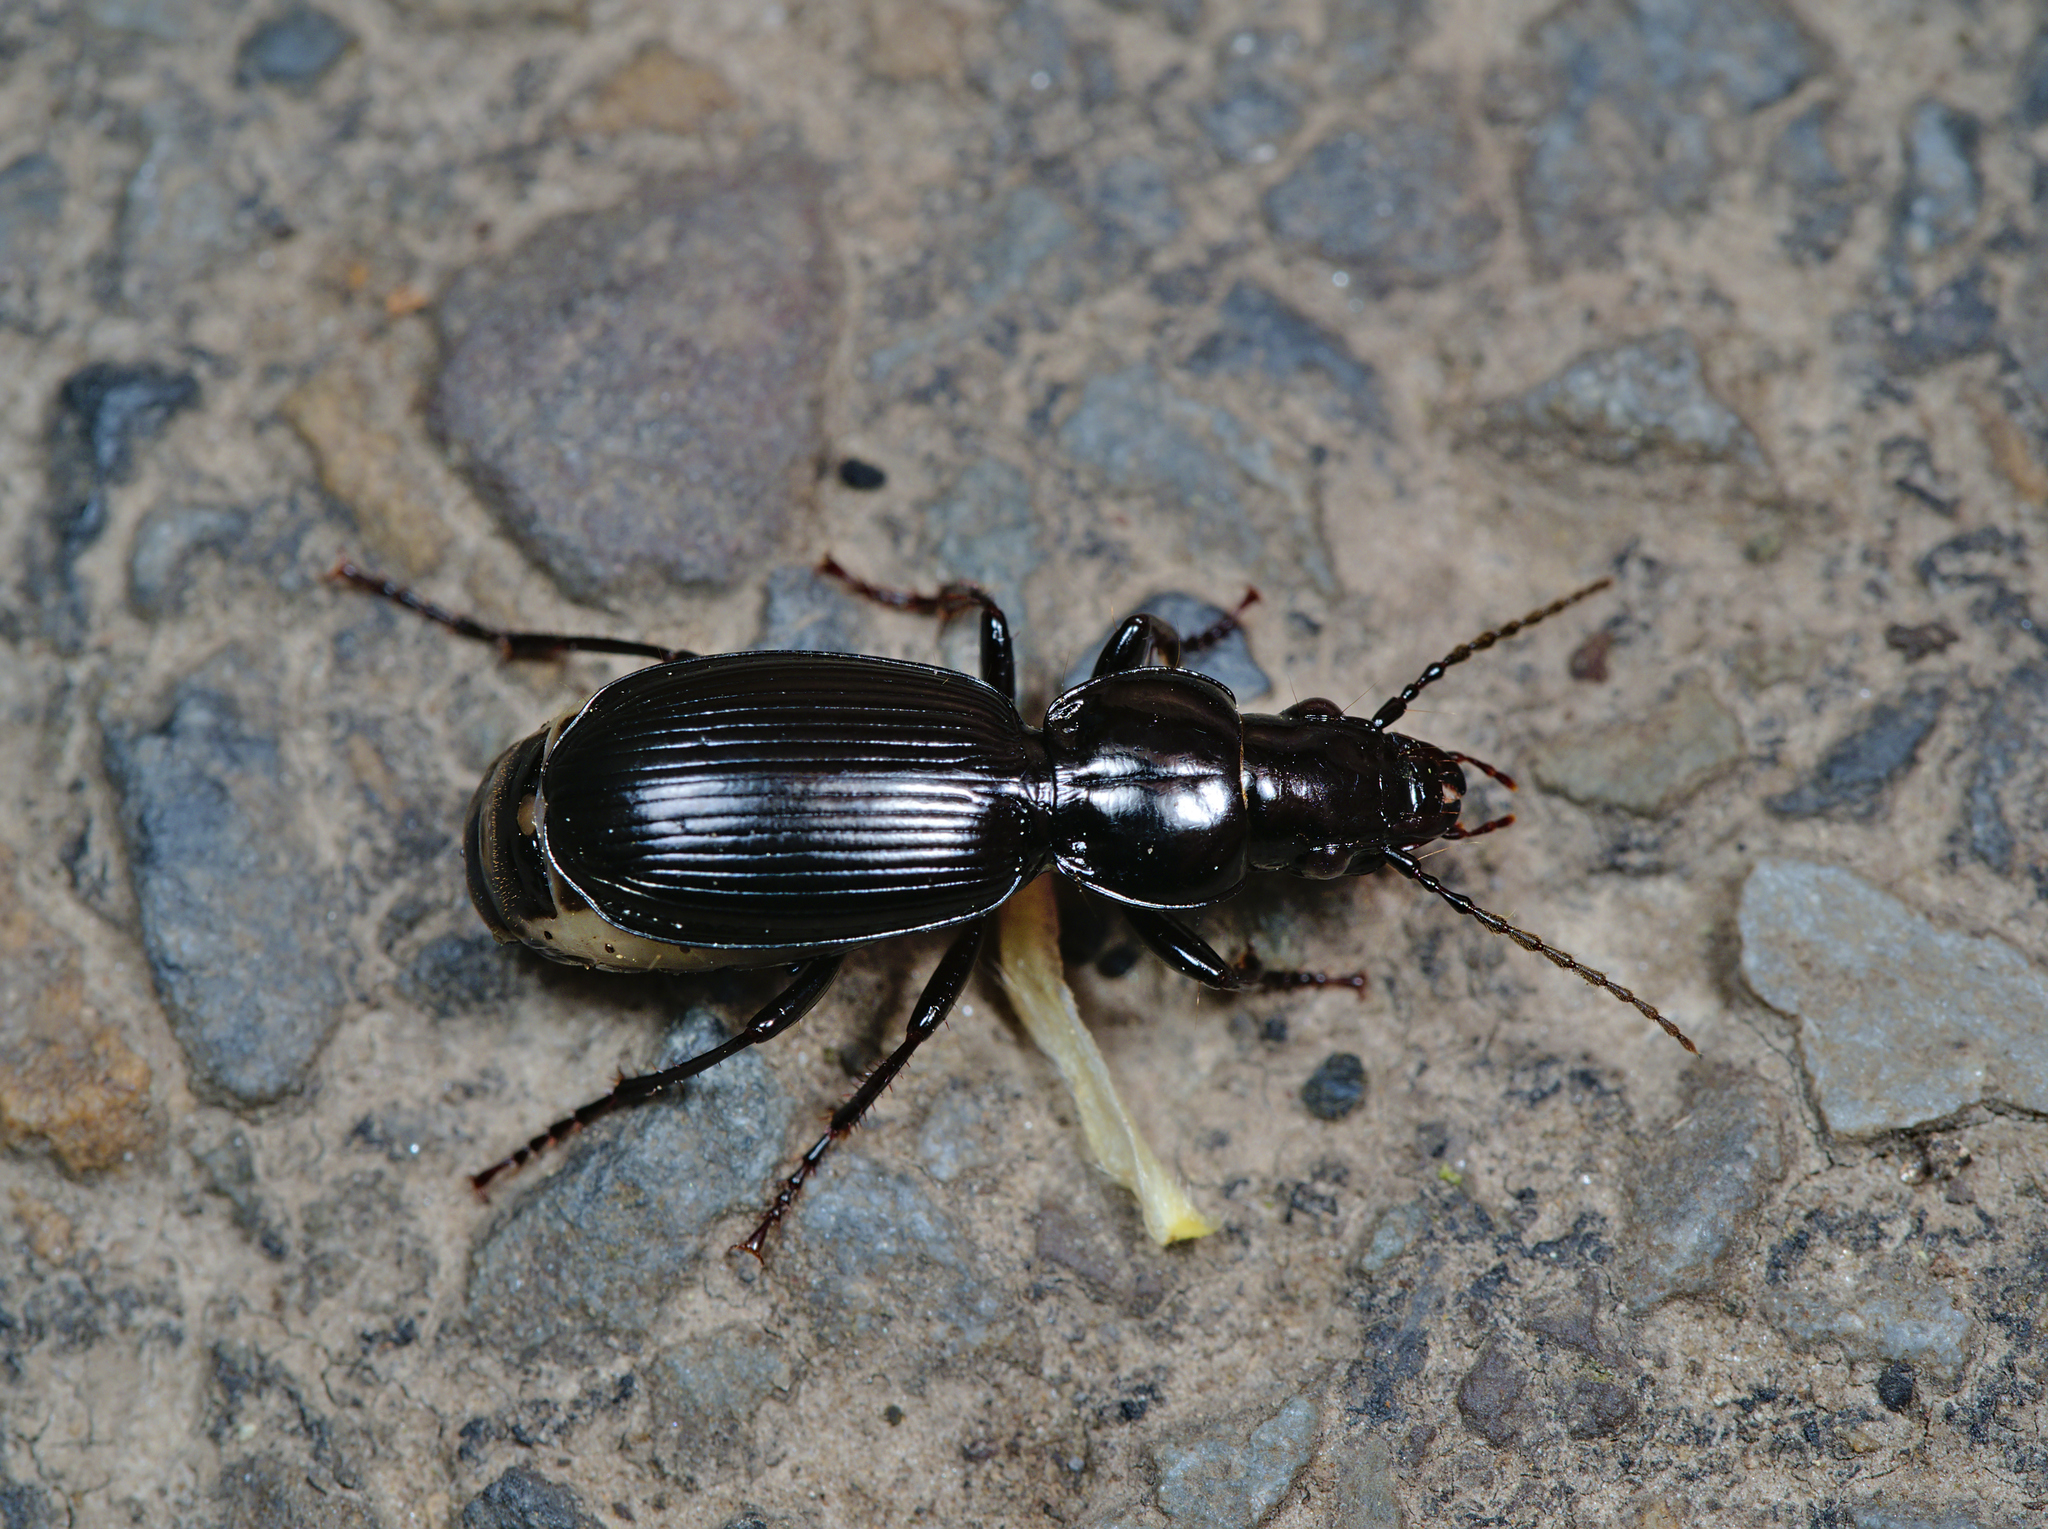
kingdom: Animalia
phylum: Arthropoda
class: Insecta
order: Coleoptera
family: Carabidae
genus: Pterostichus
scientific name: Pterostichus madidus
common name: Black clock
